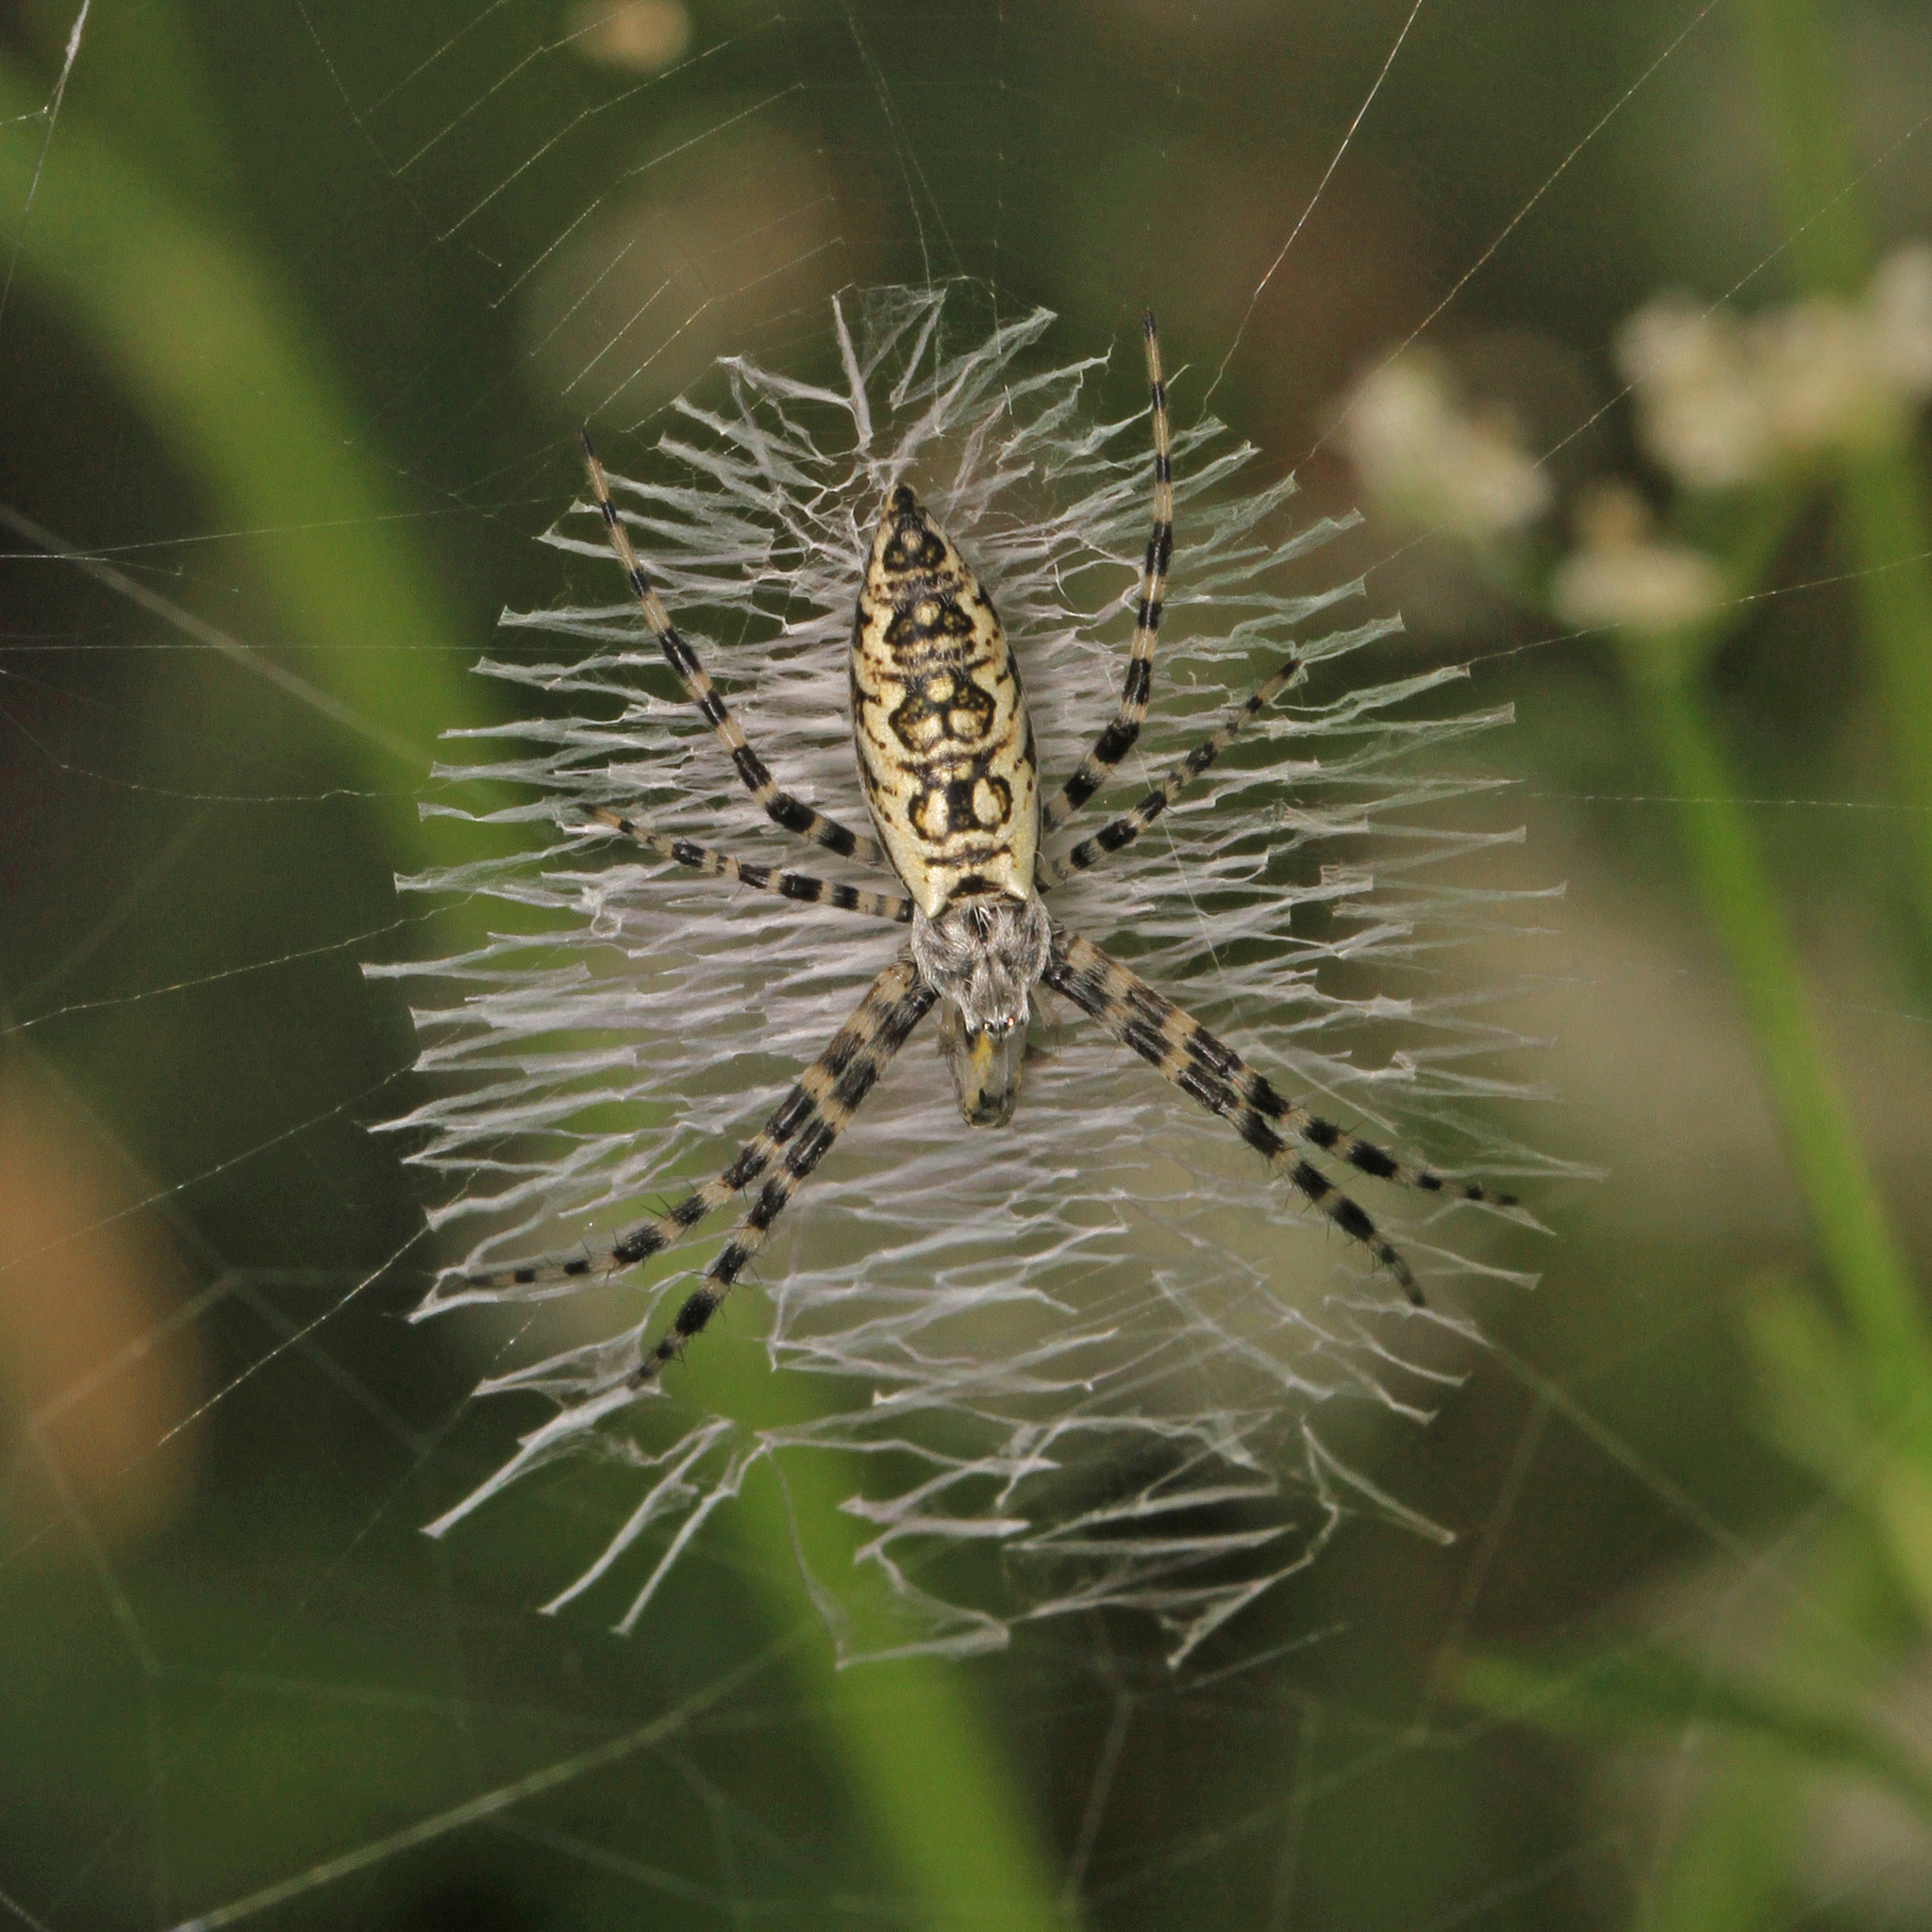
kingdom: Animalia
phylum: Arthropoda
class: Arachnida
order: Araneae
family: Araneidae
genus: Argiope
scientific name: Argiope aurantia
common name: Orb weavers
